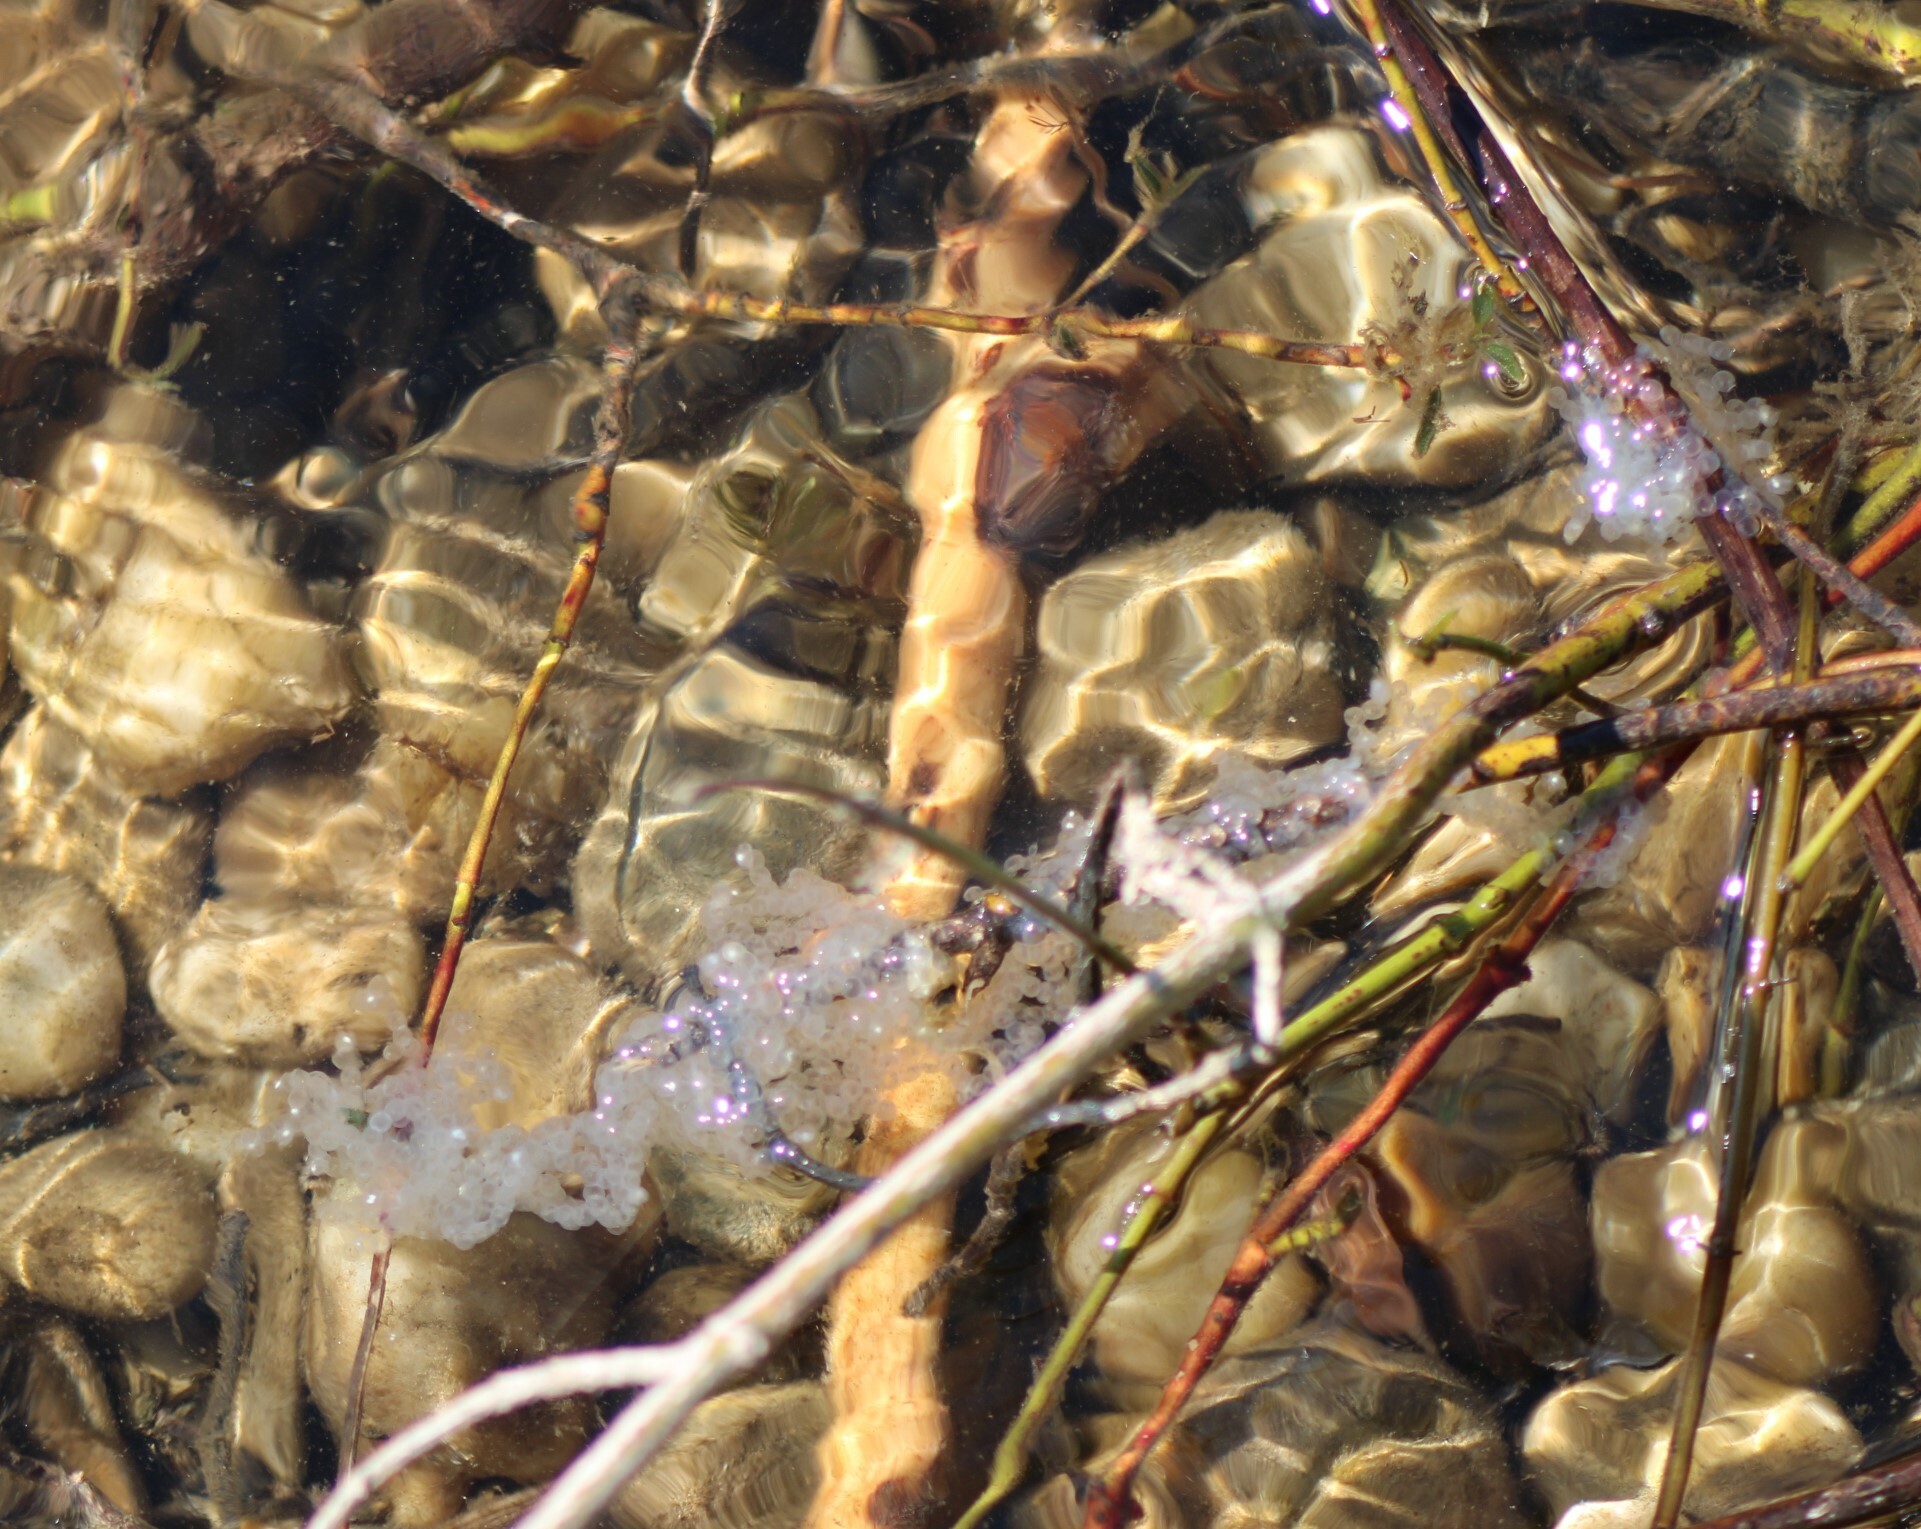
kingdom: Animalia
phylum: Chordata
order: Perciformes
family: Percidae
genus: Perca
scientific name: Perca fluviatilis
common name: Perch
